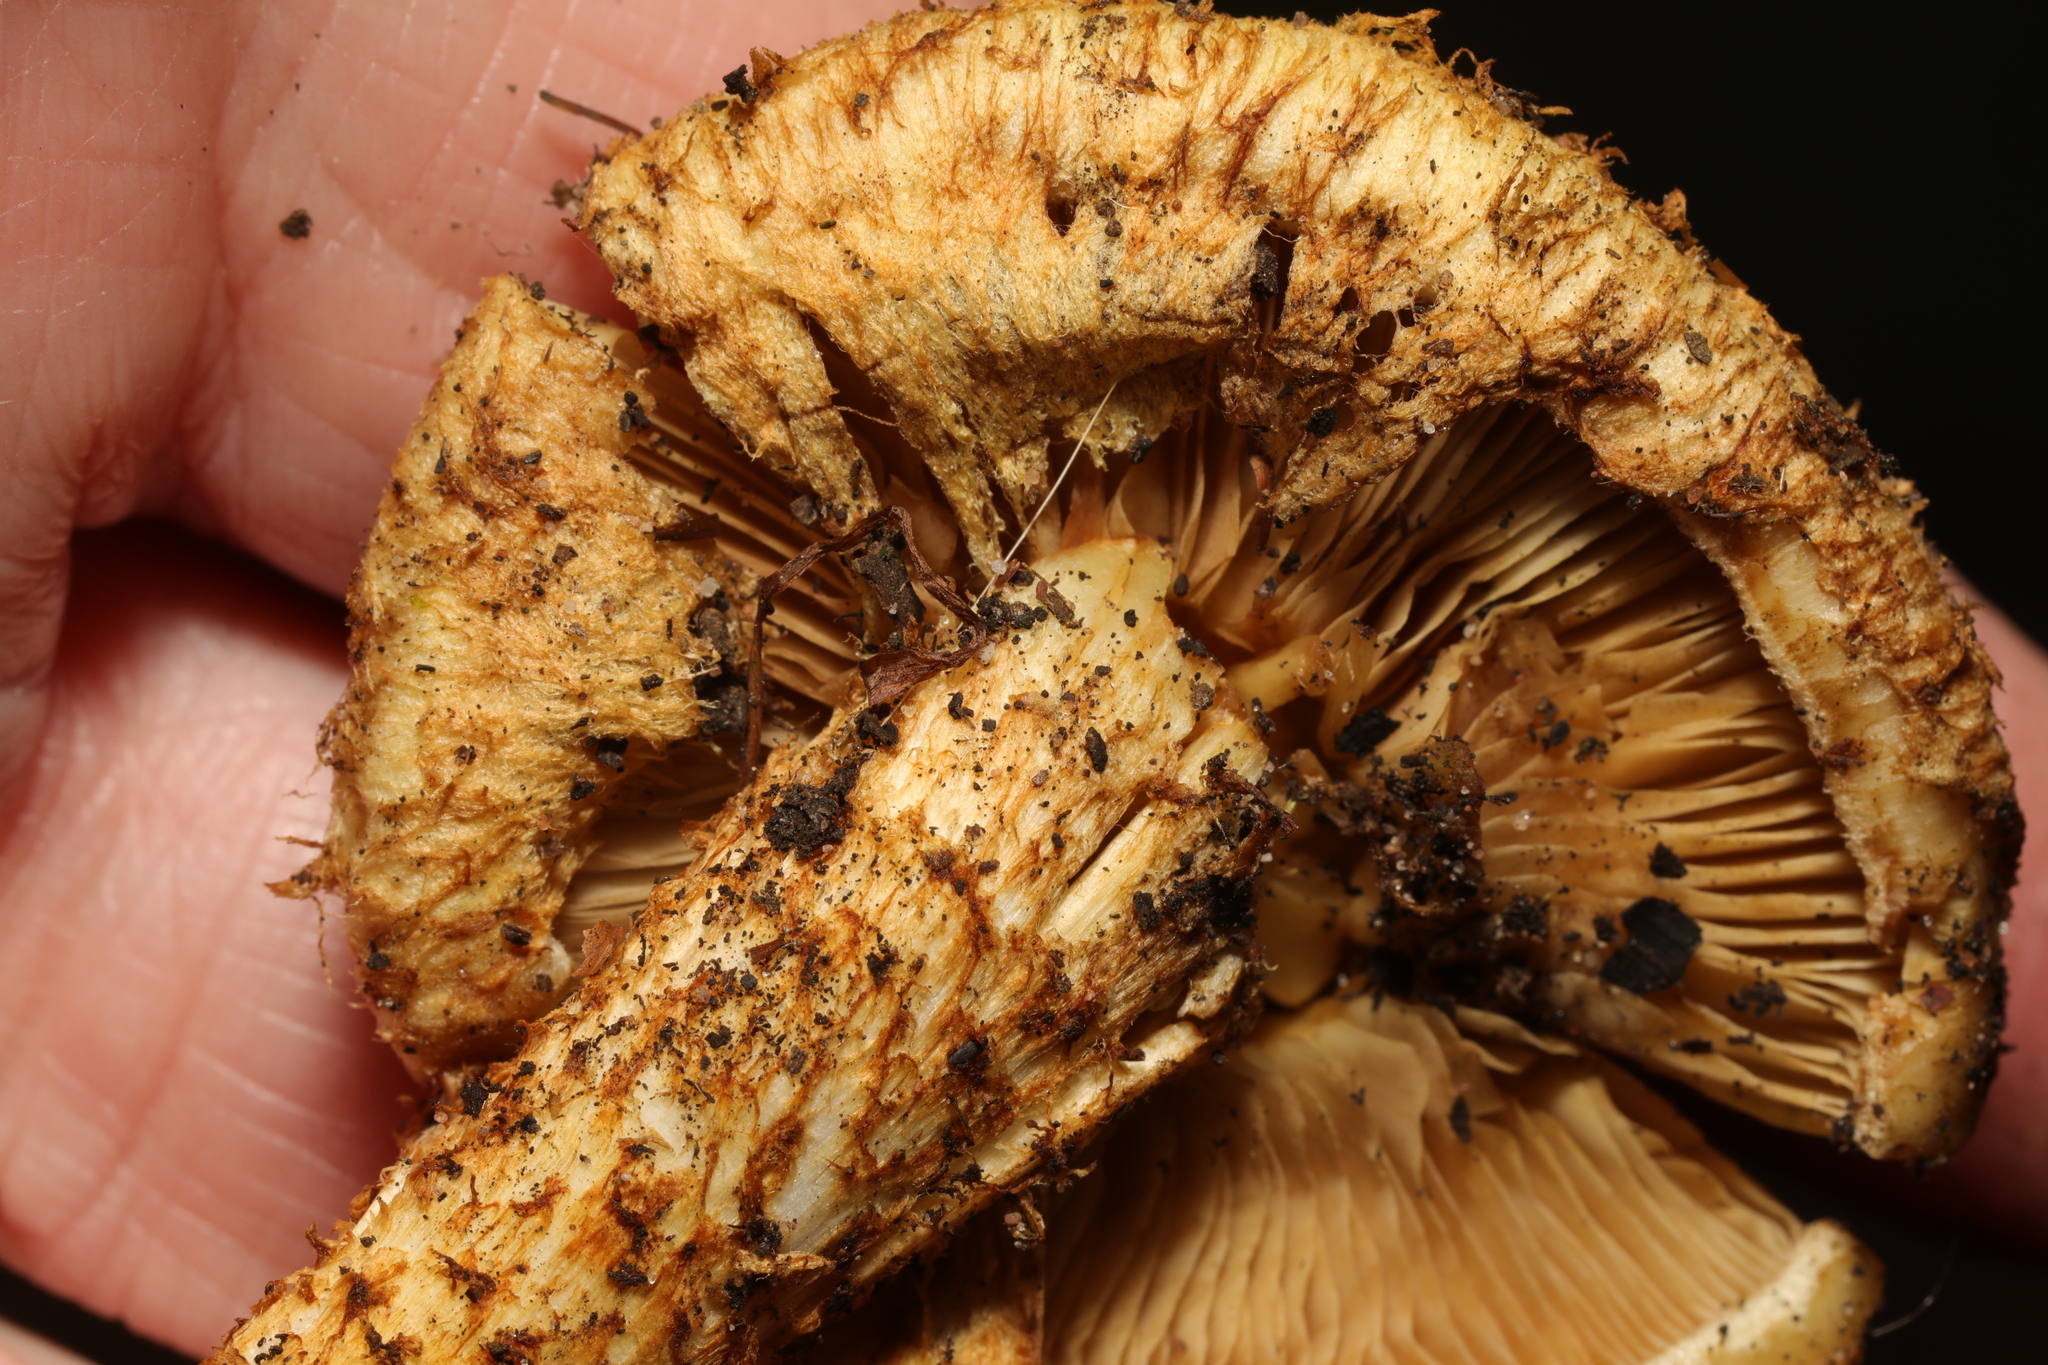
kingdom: Fungi
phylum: Basidiomycota
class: Agaricomycetes
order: Agaricales
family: Strophariaceae
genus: Pholiota
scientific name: Pholiota squarrosa
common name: Shaggy pholiota
